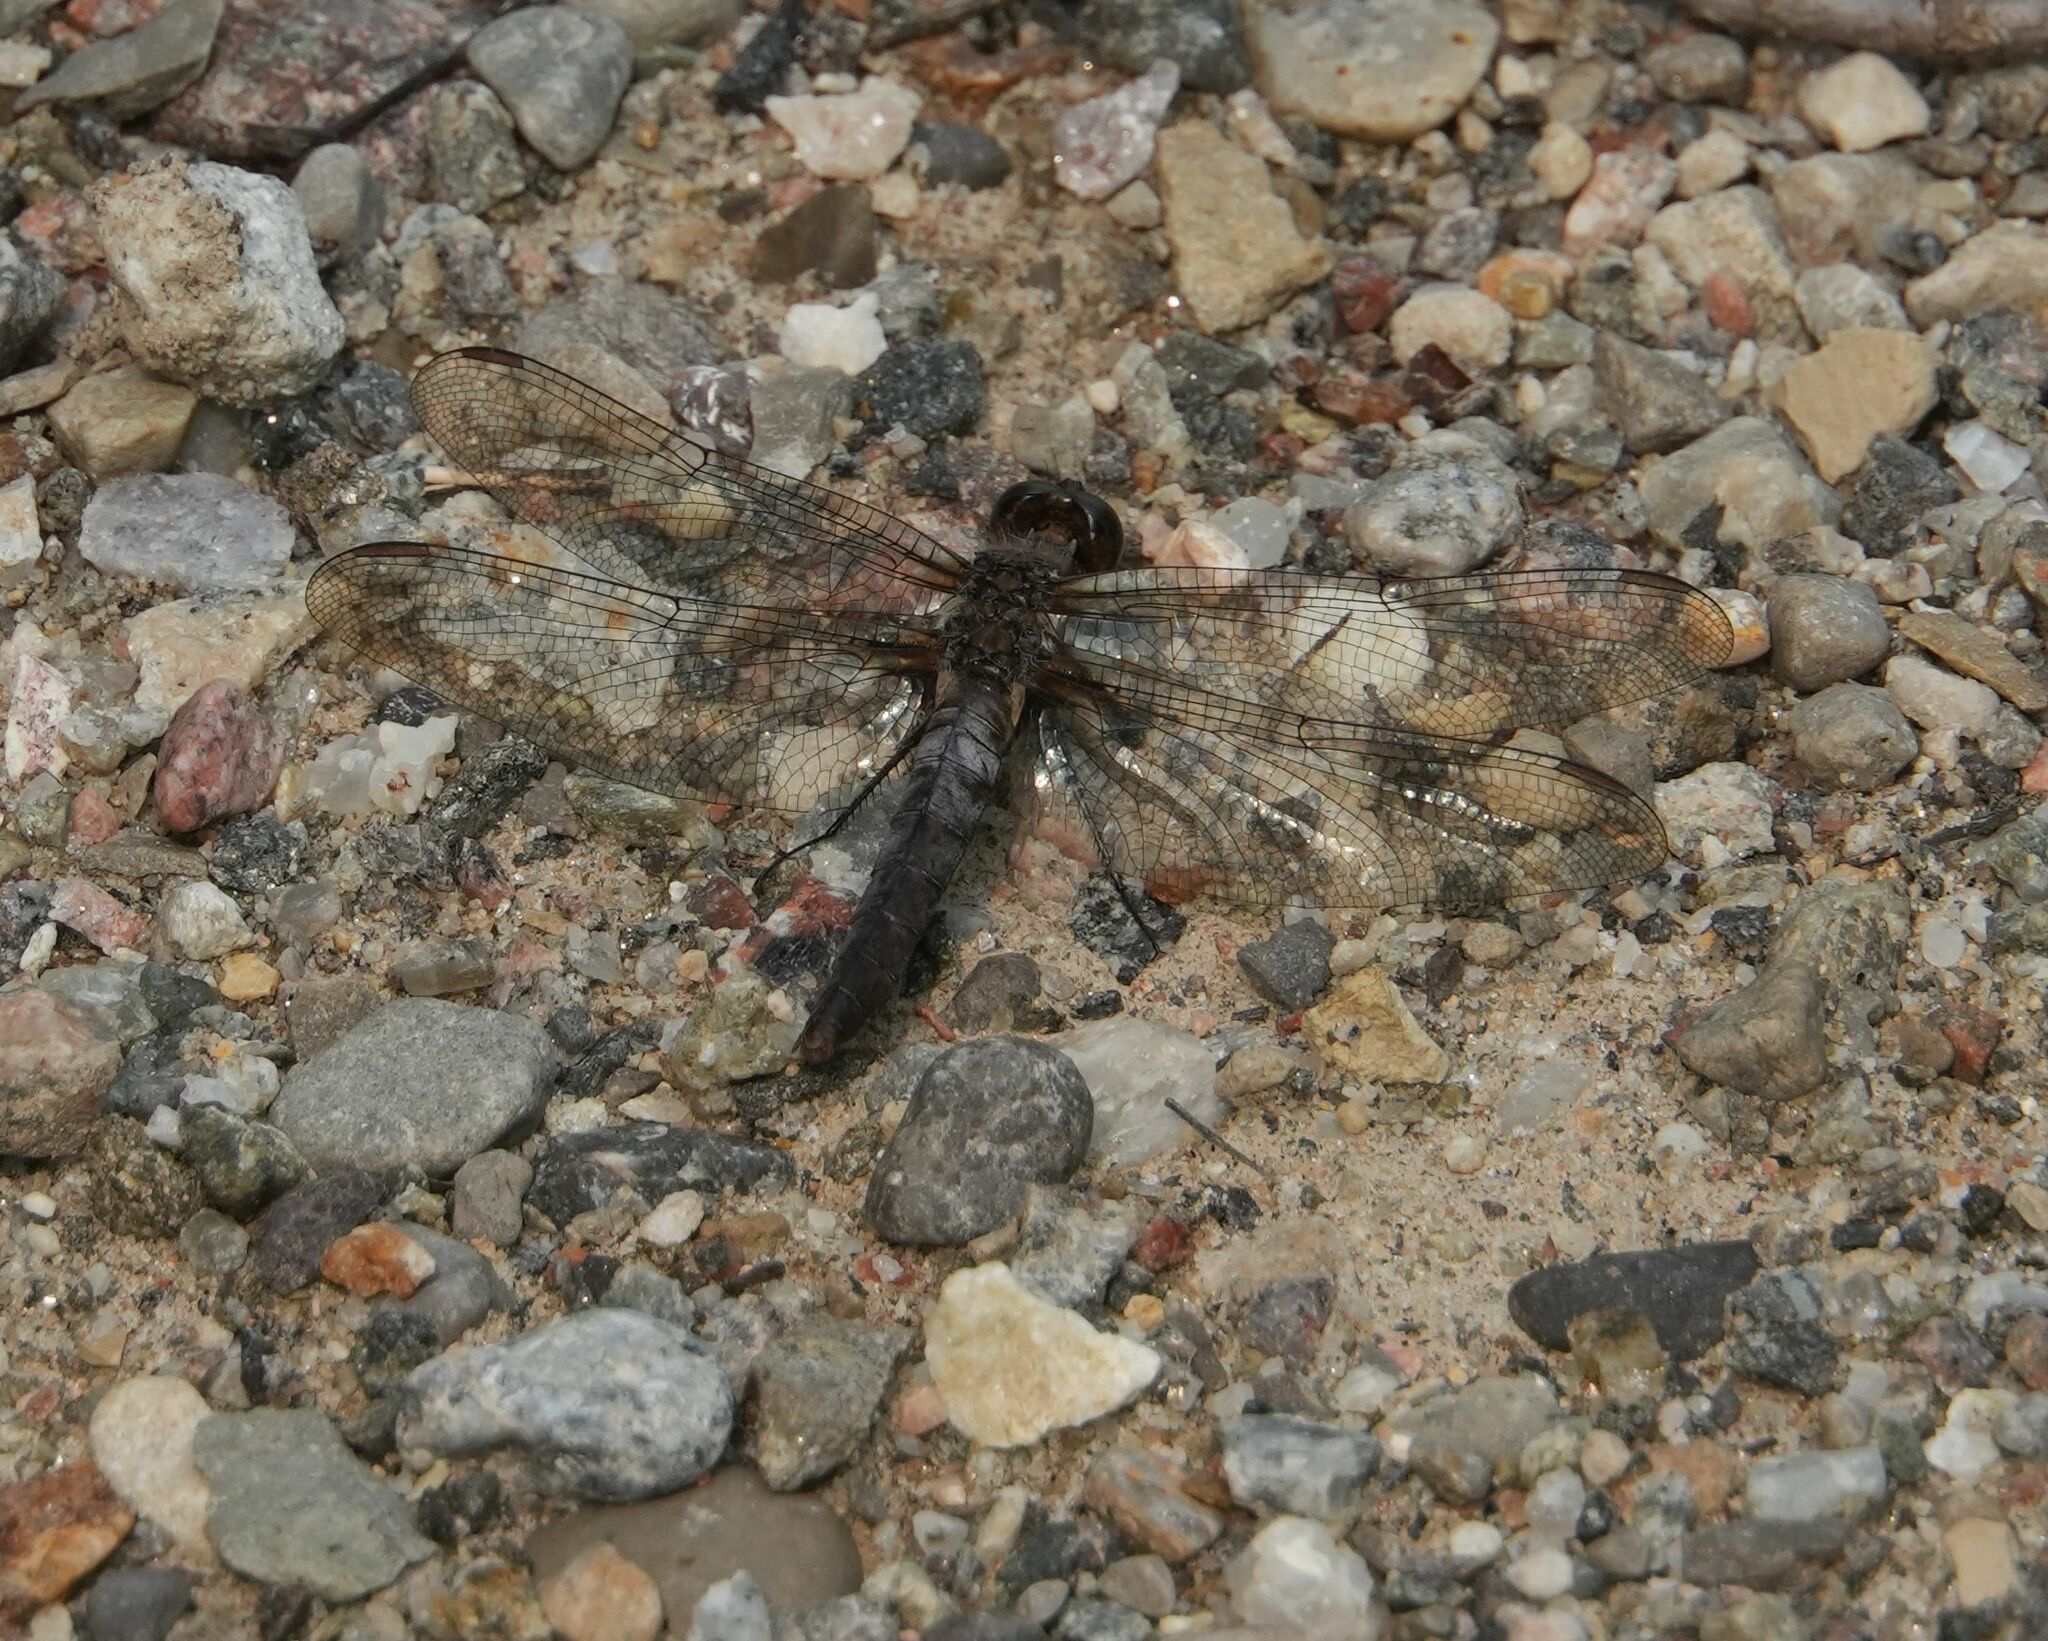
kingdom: Animalia
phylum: Arthropoda
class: Insecta
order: Odonata
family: Libellulidae
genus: Ladona
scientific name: Ladona julia
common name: Chalk-fronted corporal
